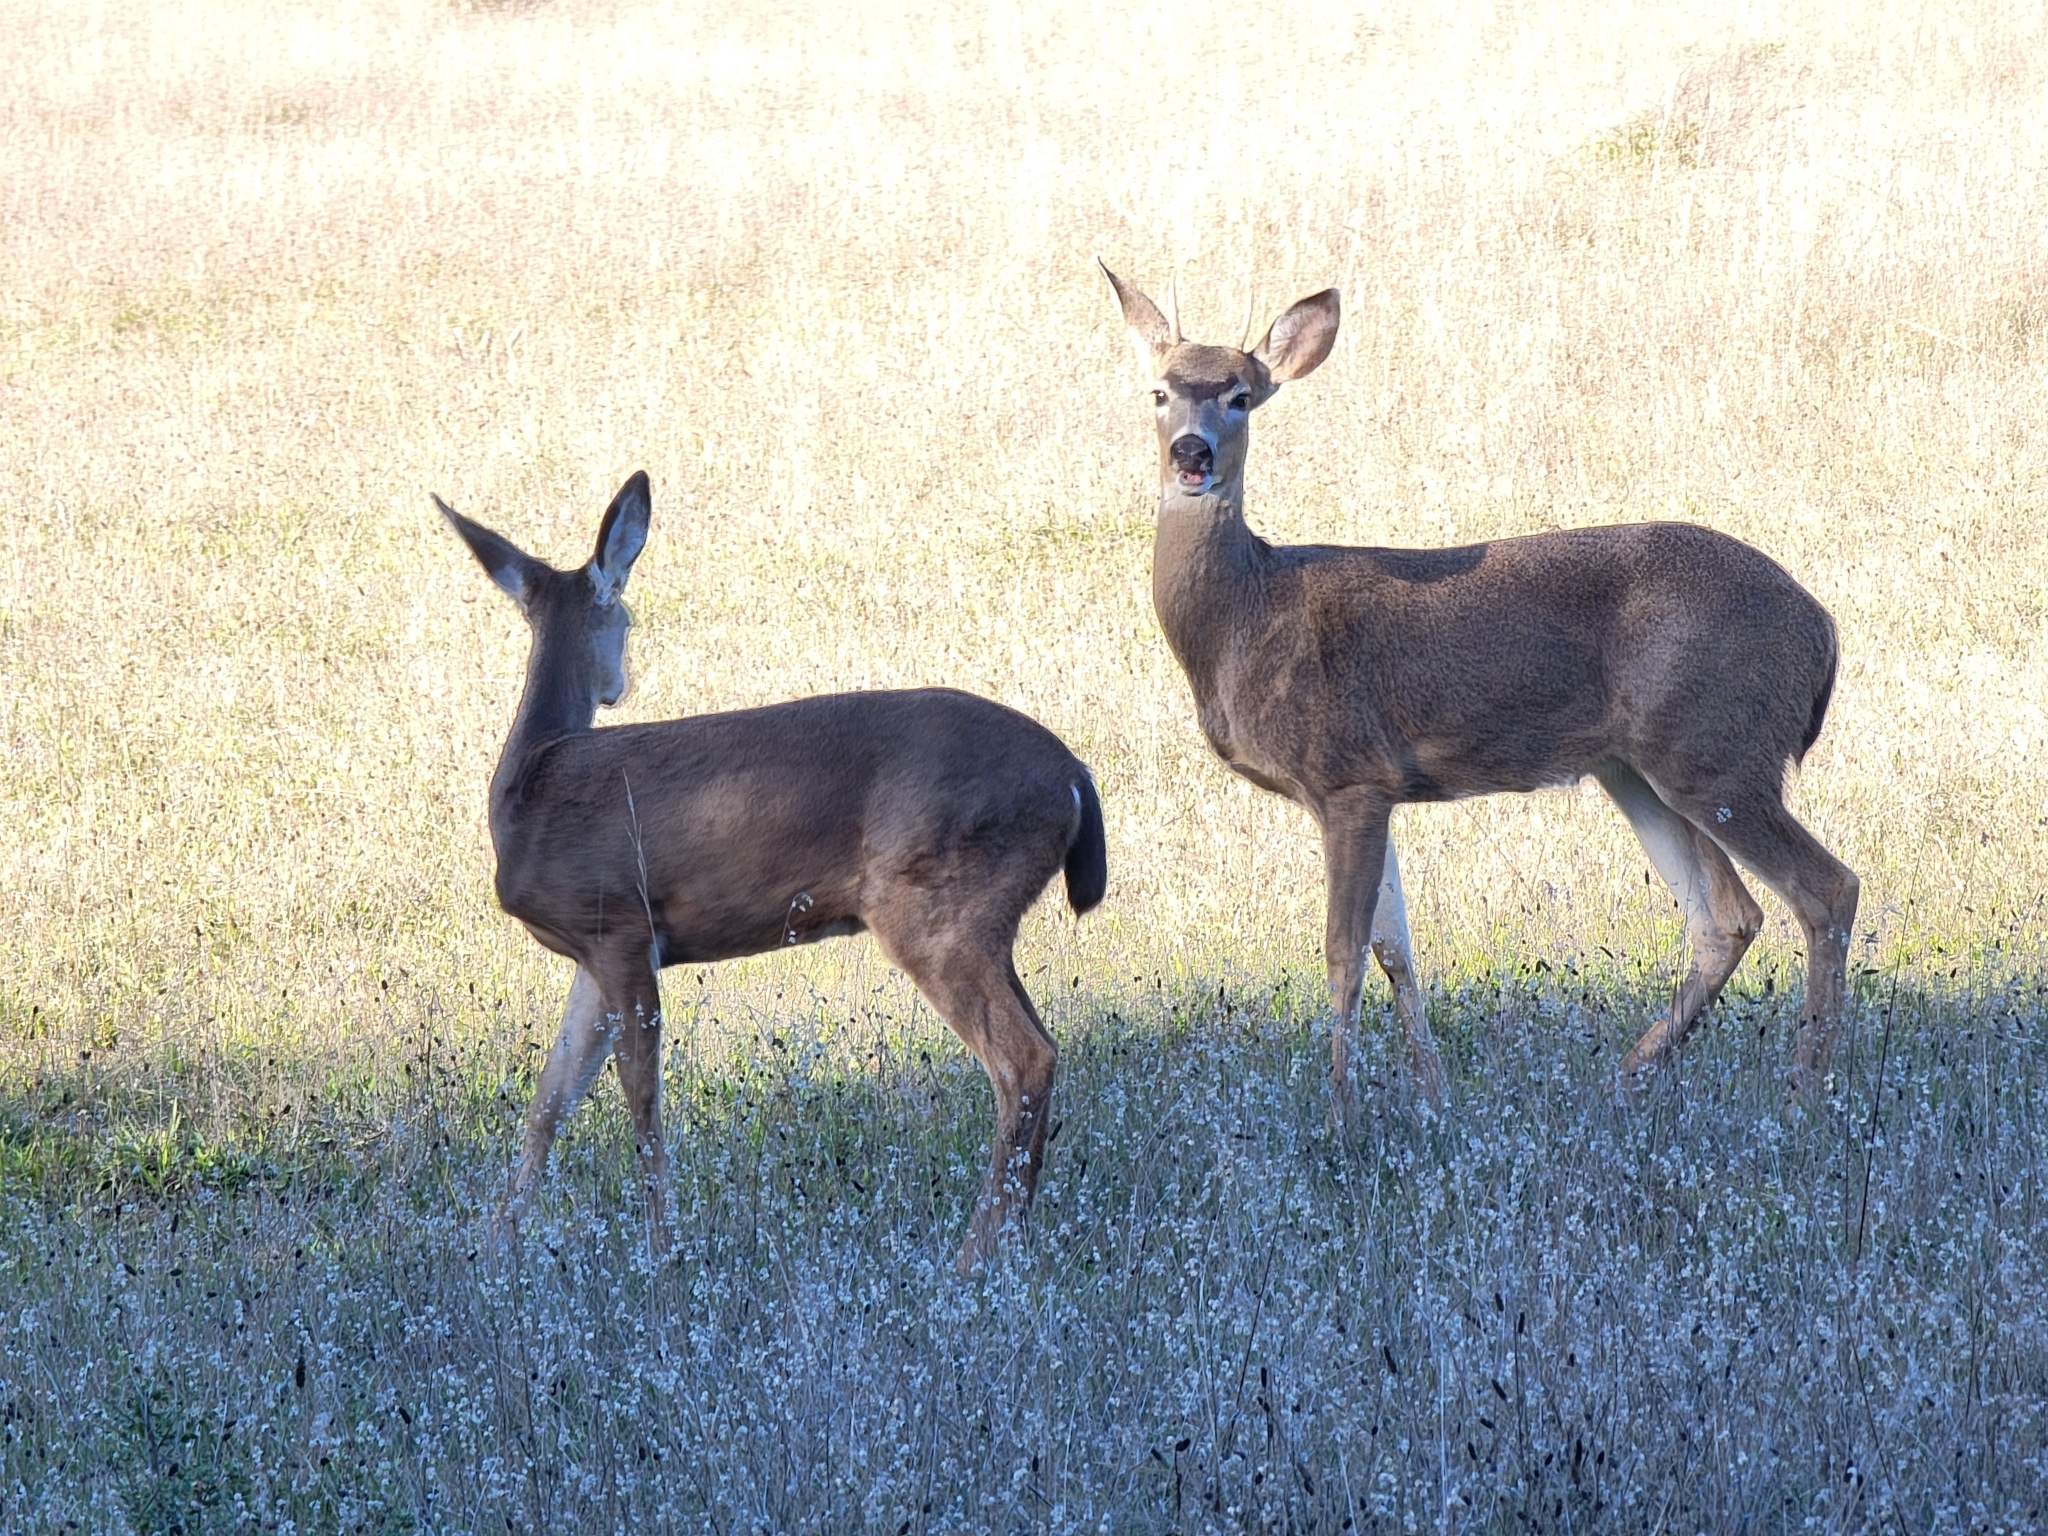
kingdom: Animalia
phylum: Chordata
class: Mammalia
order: Artiodactyla
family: Cervidae
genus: Odocoileus
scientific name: Odocoileus hemionus
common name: Mule deer
